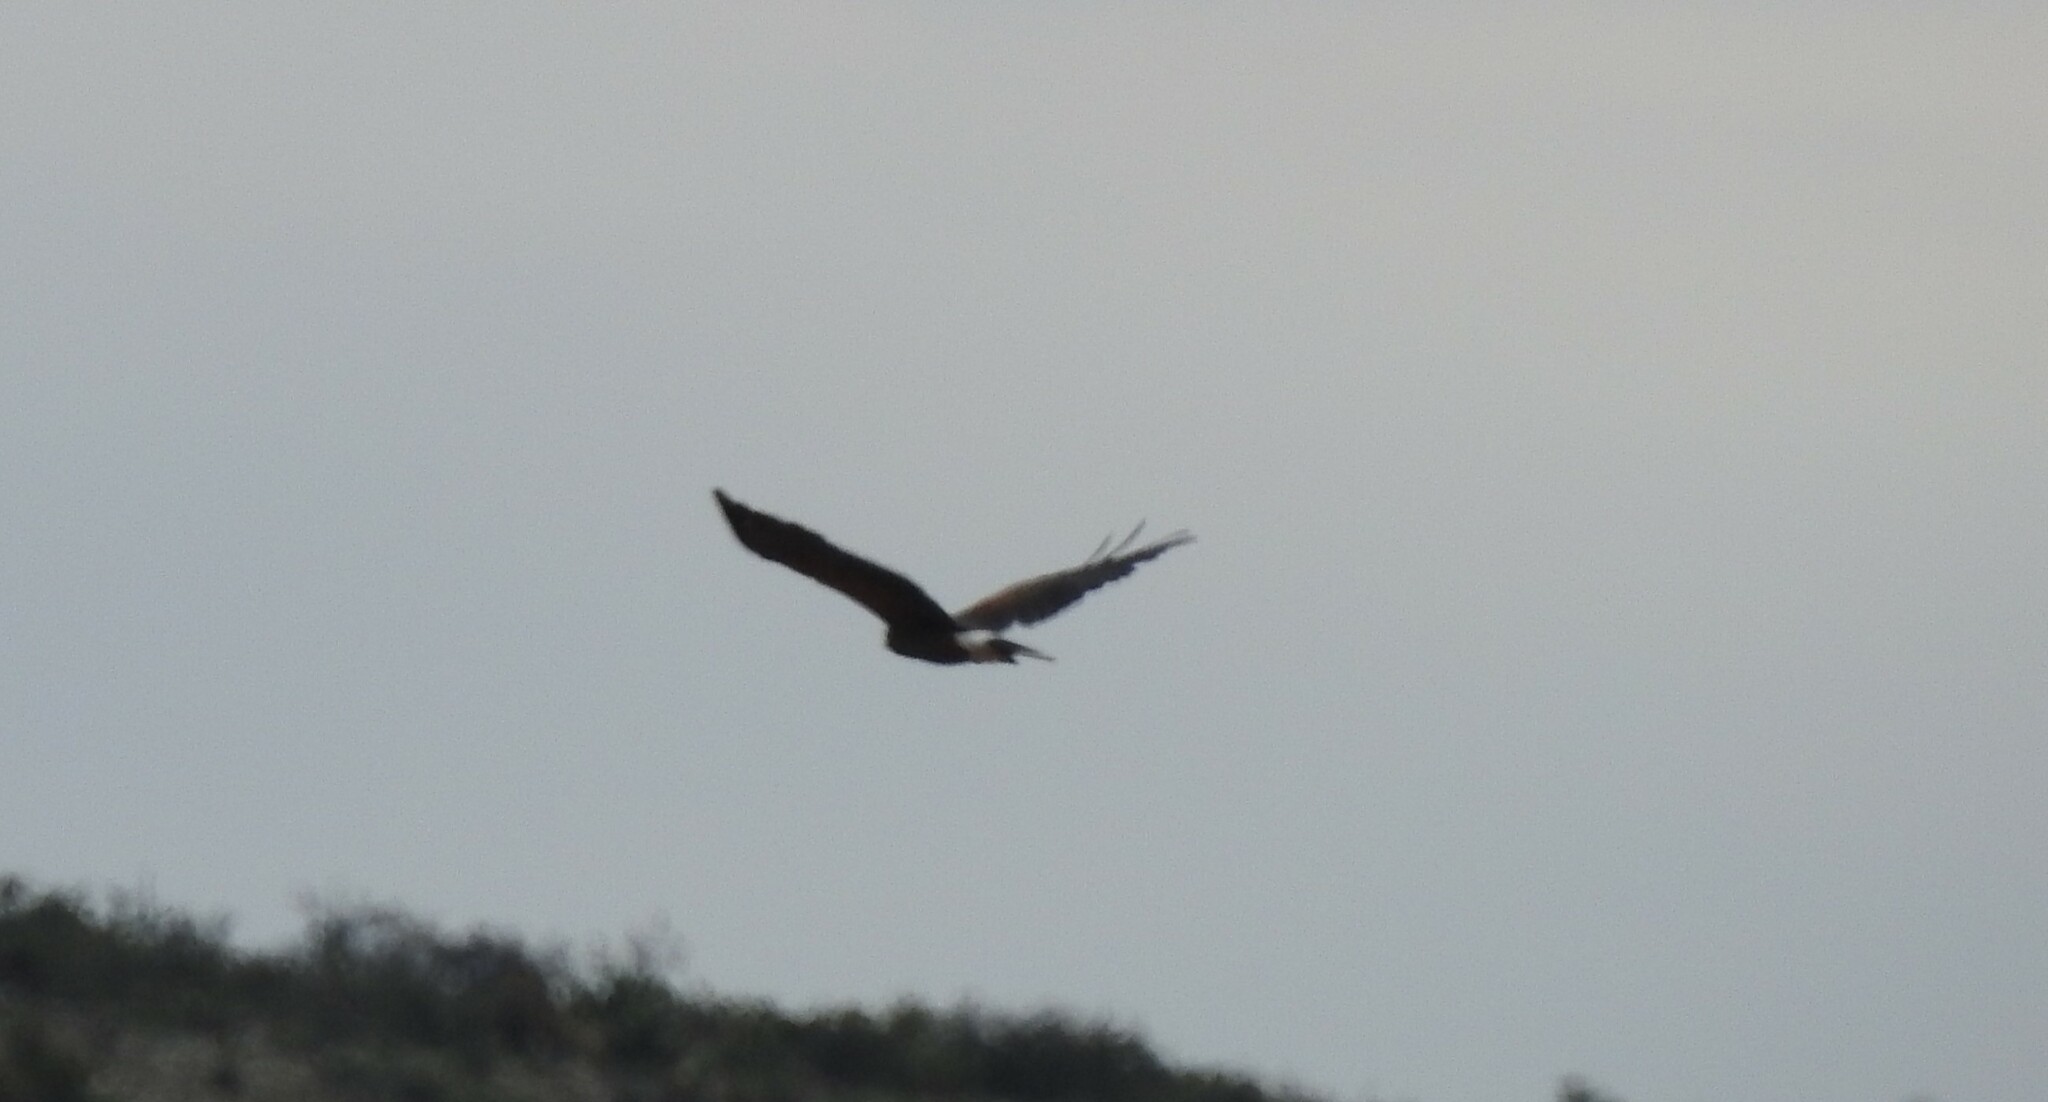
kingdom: Animalia
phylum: Chordata
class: Aves
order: Accipitriformes
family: Accipitridae
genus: Parabuteo
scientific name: Parabuteo unicinctus
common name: Harris's hawk
